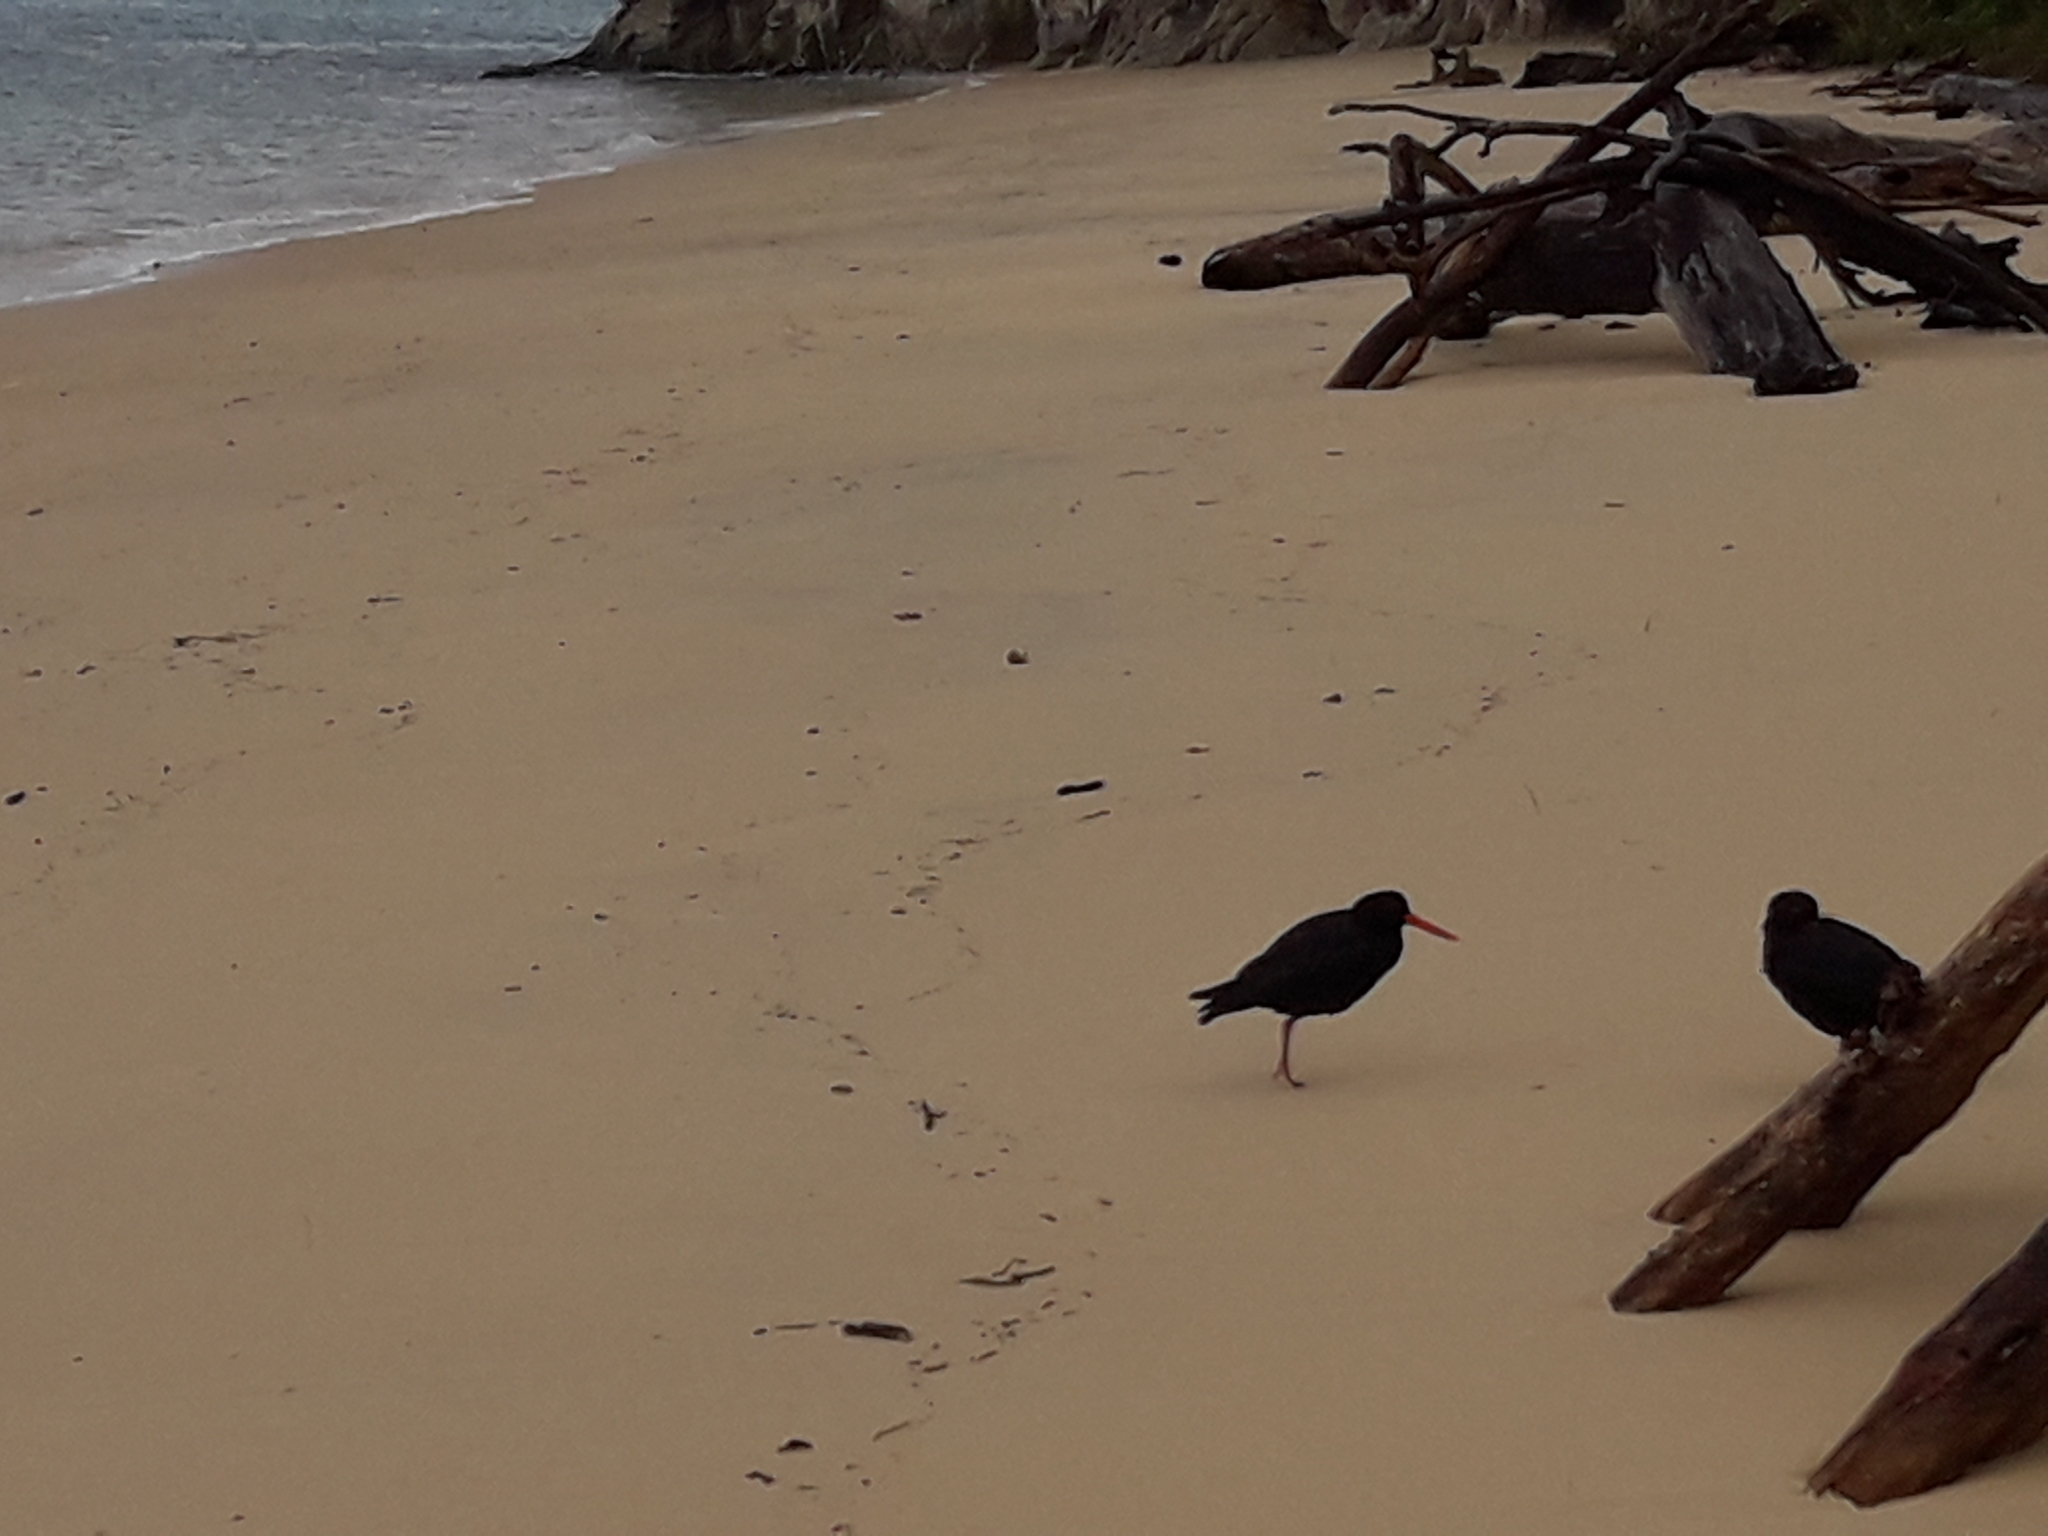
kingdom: Animalia
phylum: Chordata
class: Aves
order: Charadriiformes
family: Haematopodidae
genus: Haematopus
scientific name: Haematopus unicolor
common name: Variable oystercatcher
